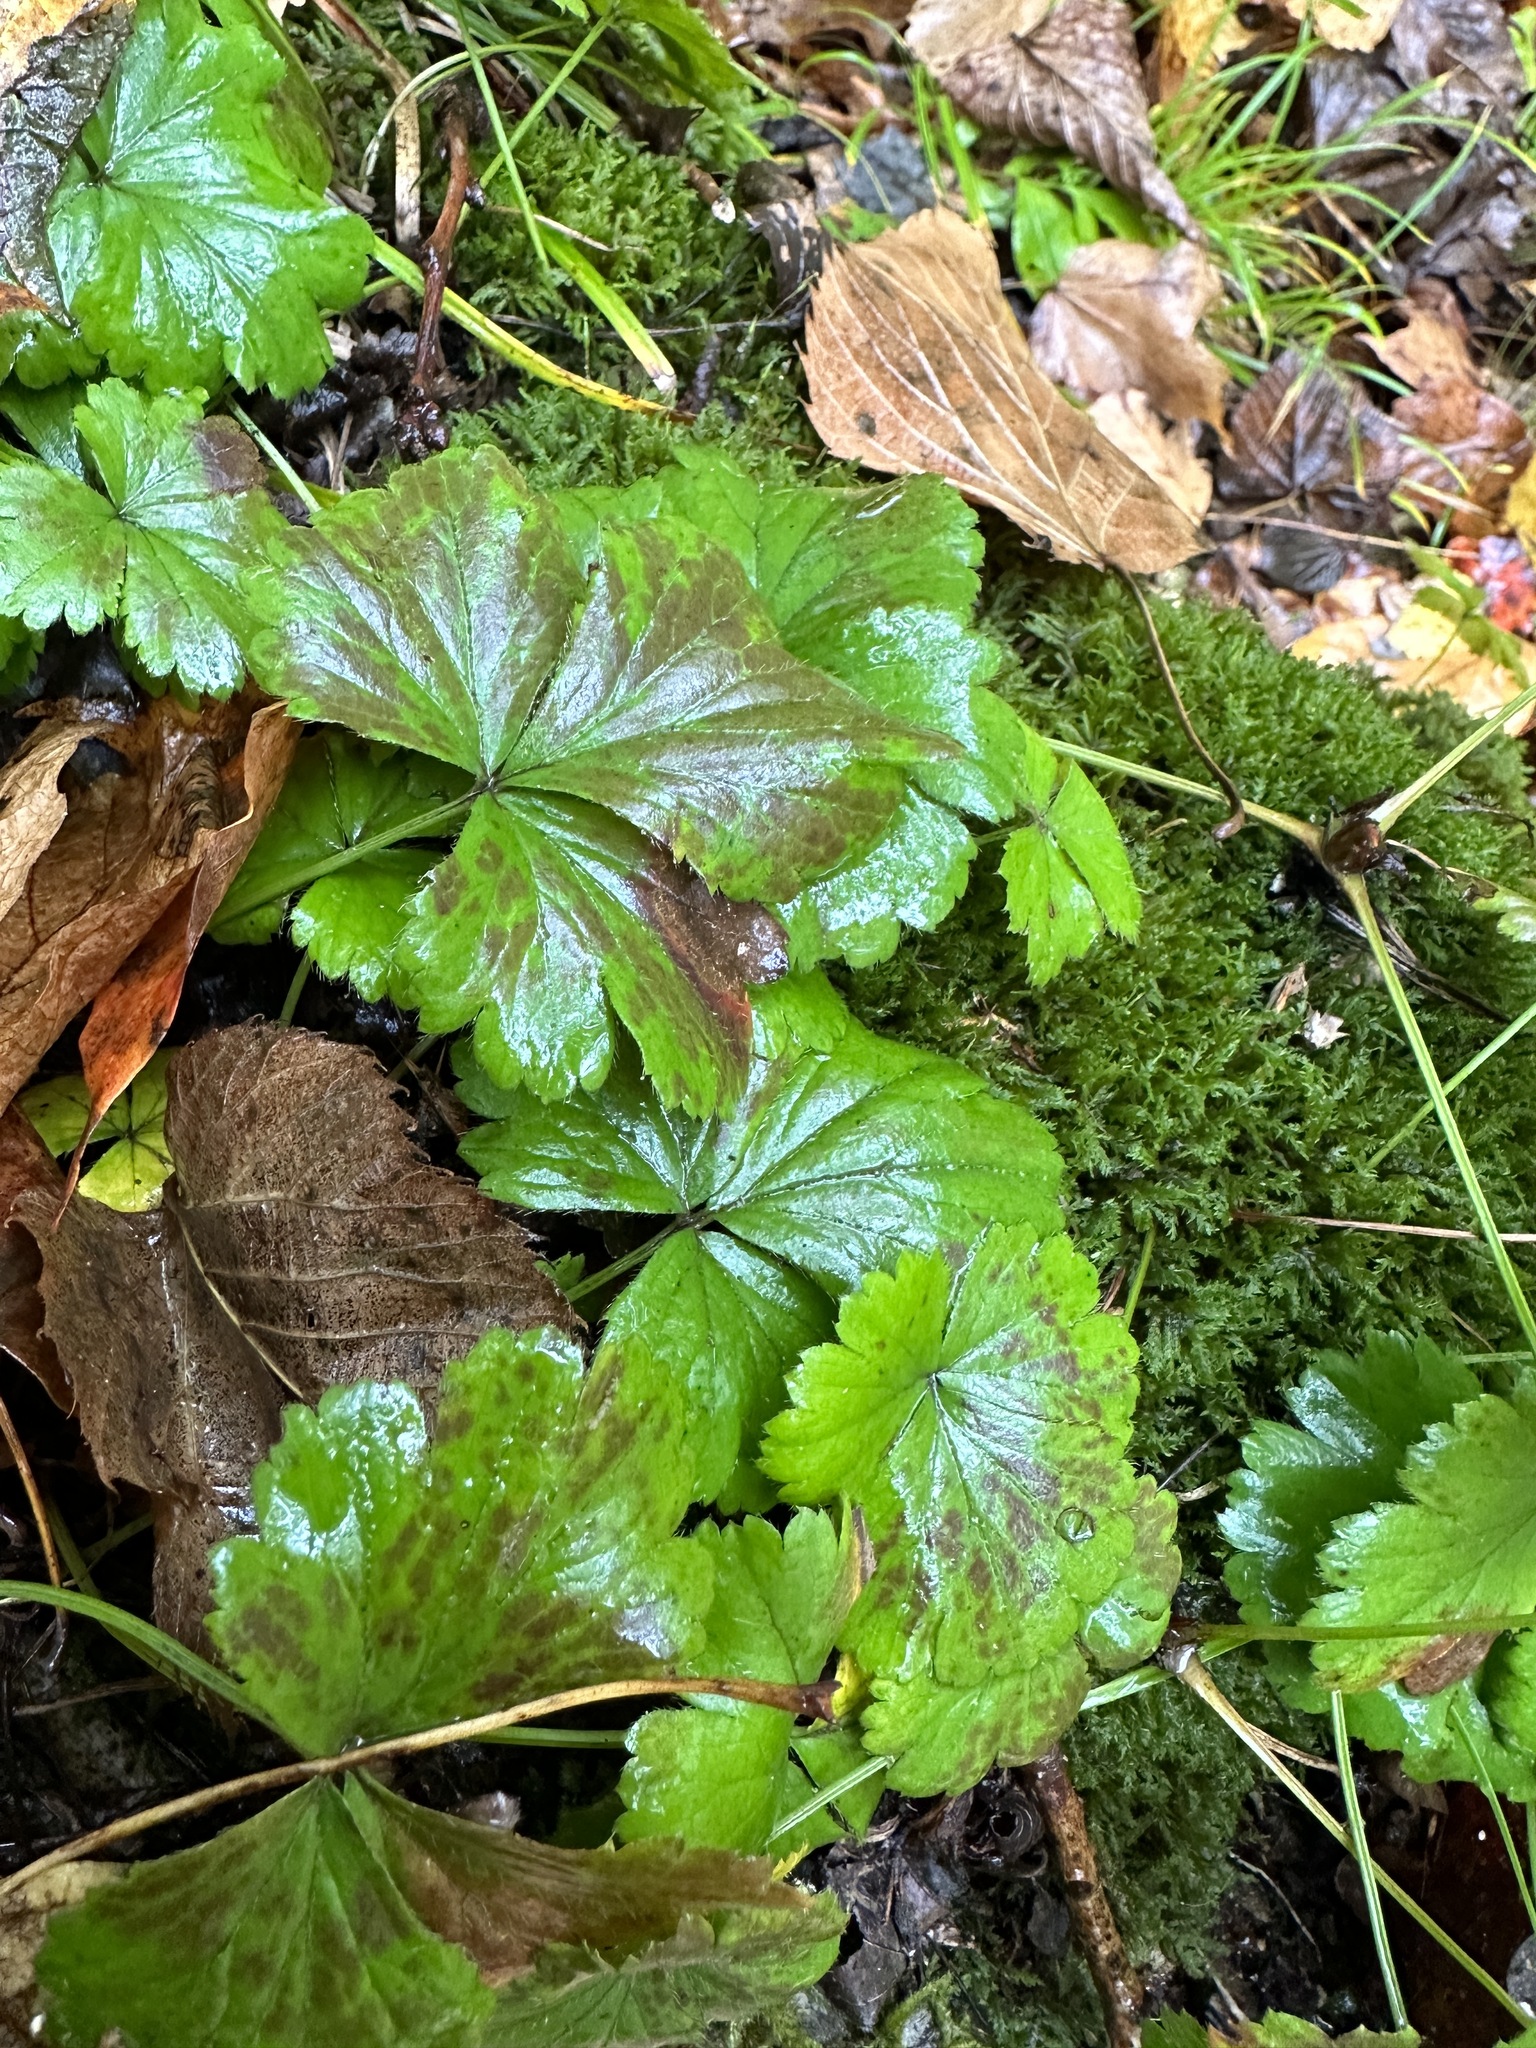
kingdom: Plantae
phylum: Tracheophyta
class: Magnoliopsida
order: Rosales
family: Rosaceae
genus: Geum
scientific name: Geum fragarioides
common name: Appalachian barren strawberry
